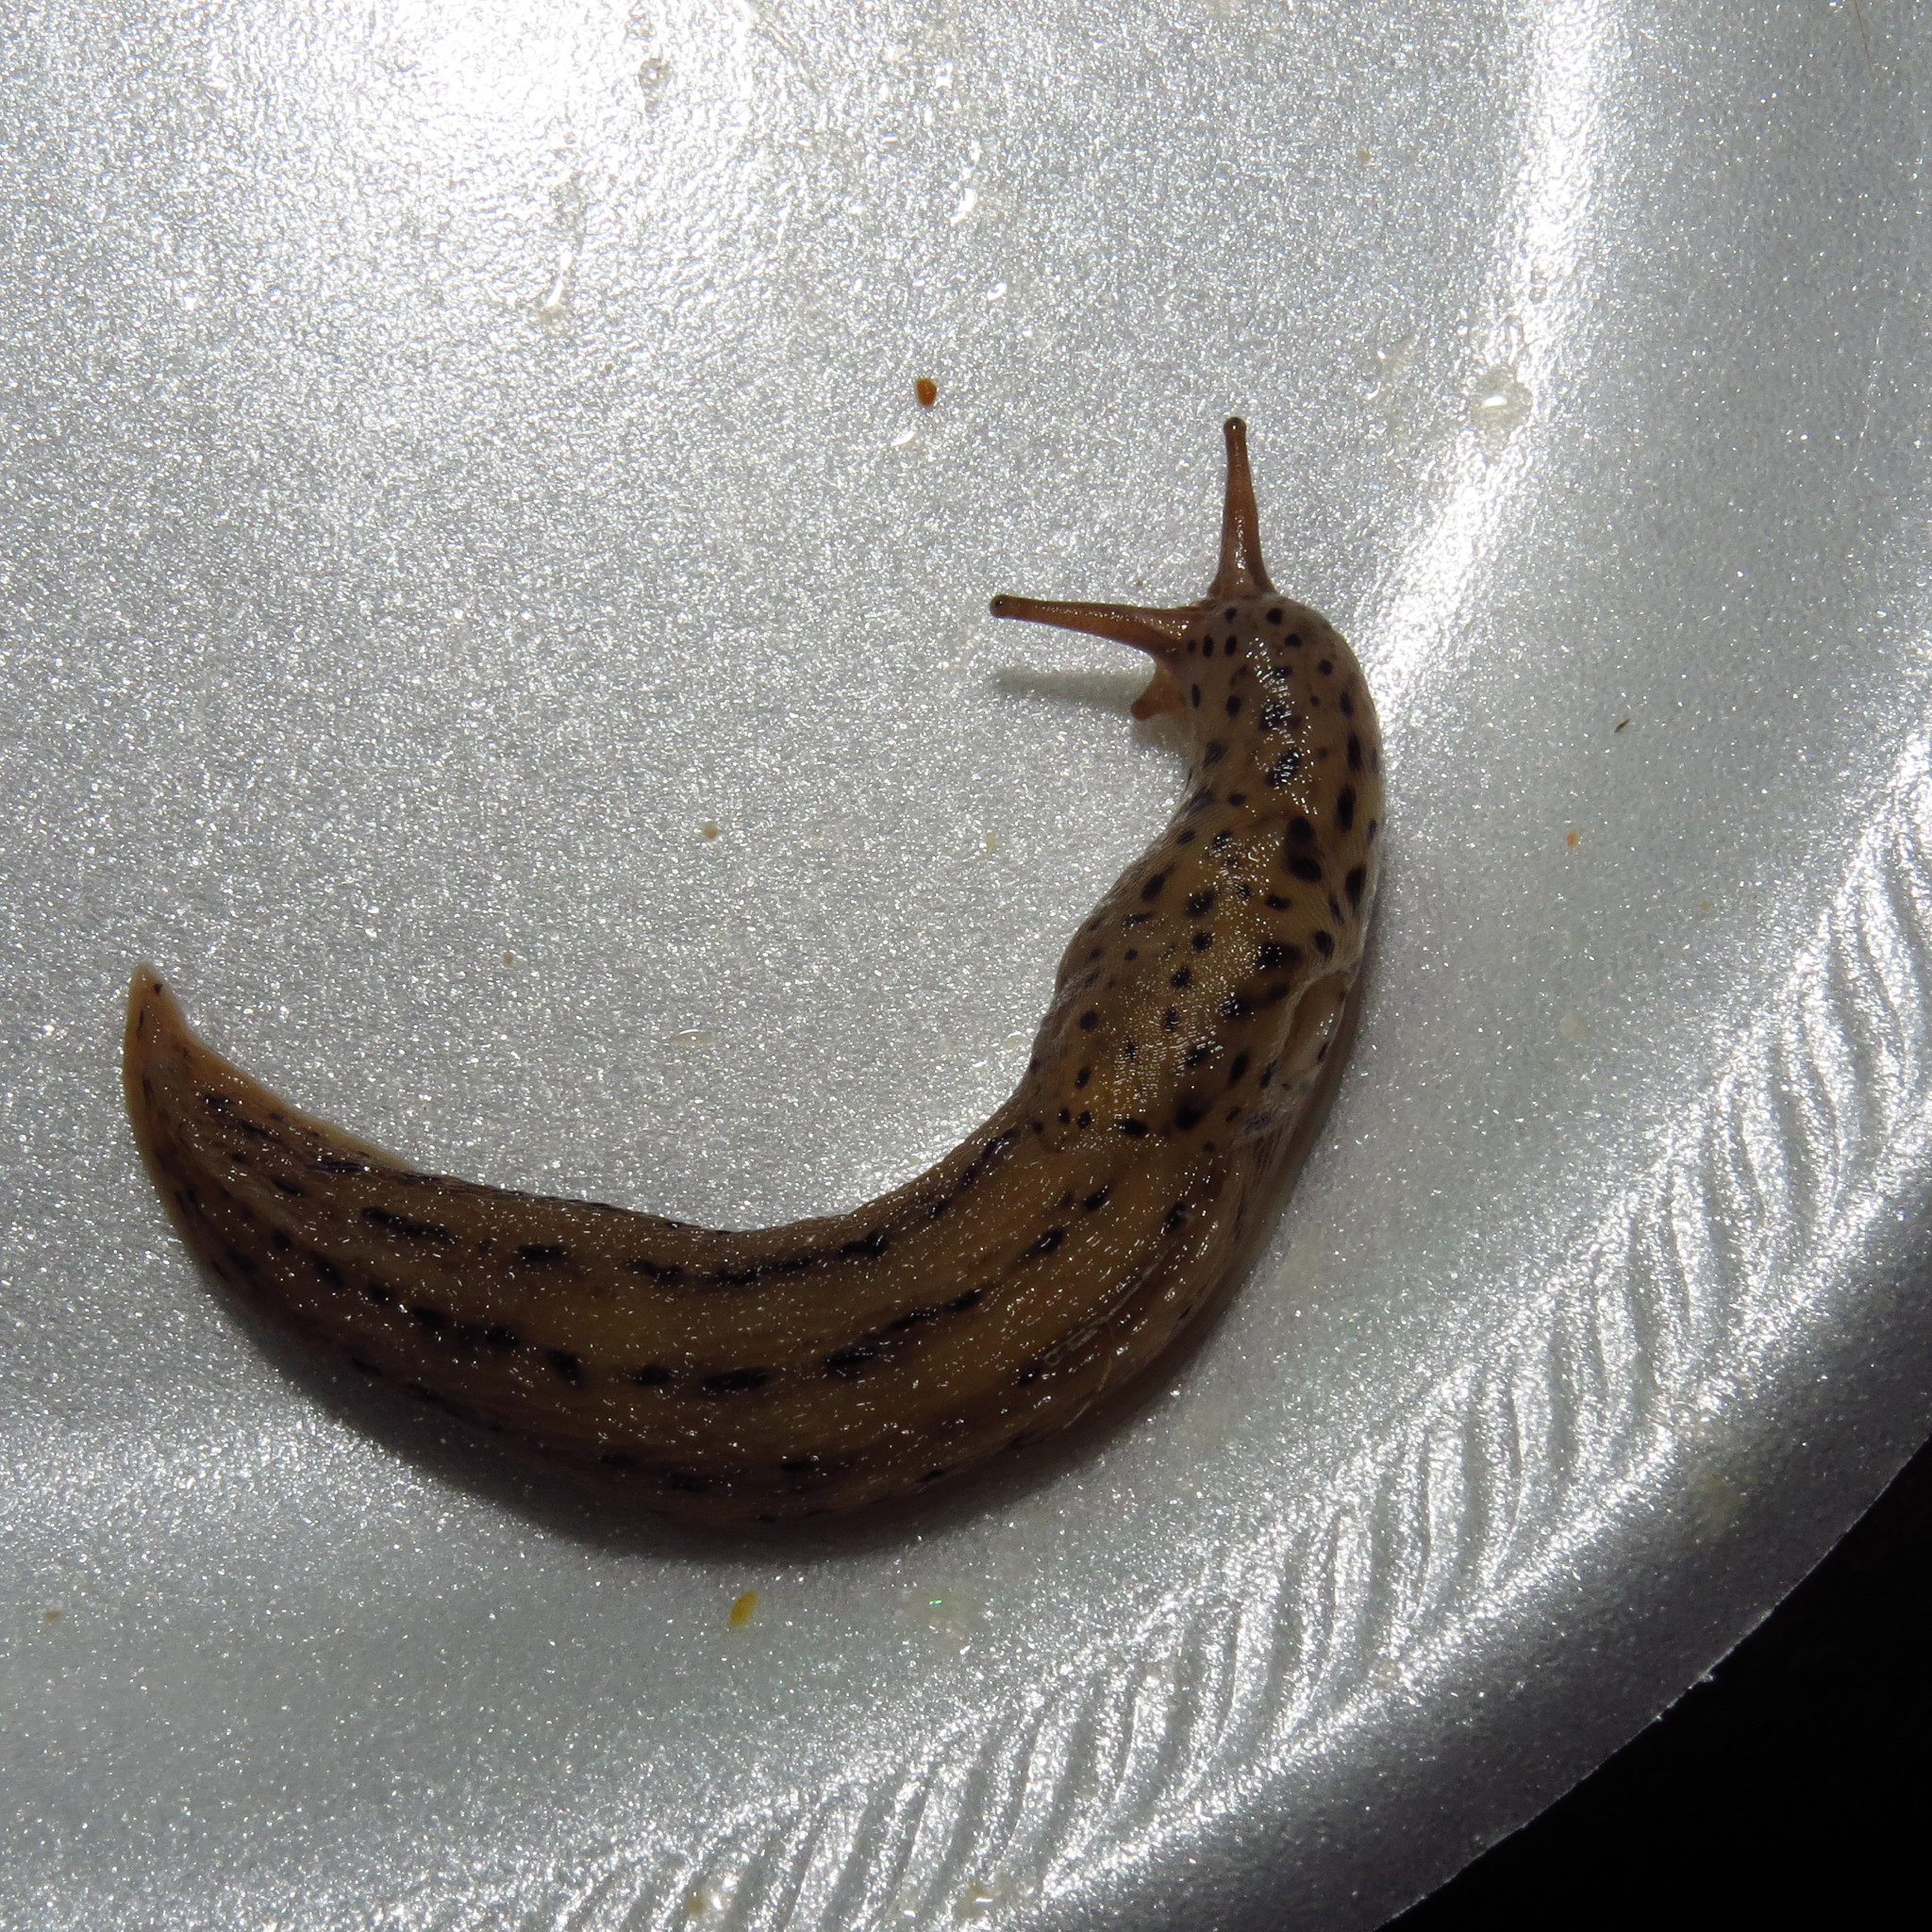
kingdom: Animalia
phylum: Mollusca
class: Gastropoda
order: Stylommatophora
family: Limacidae
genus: Limax
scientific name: Limax maximus
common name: Great grey slug
